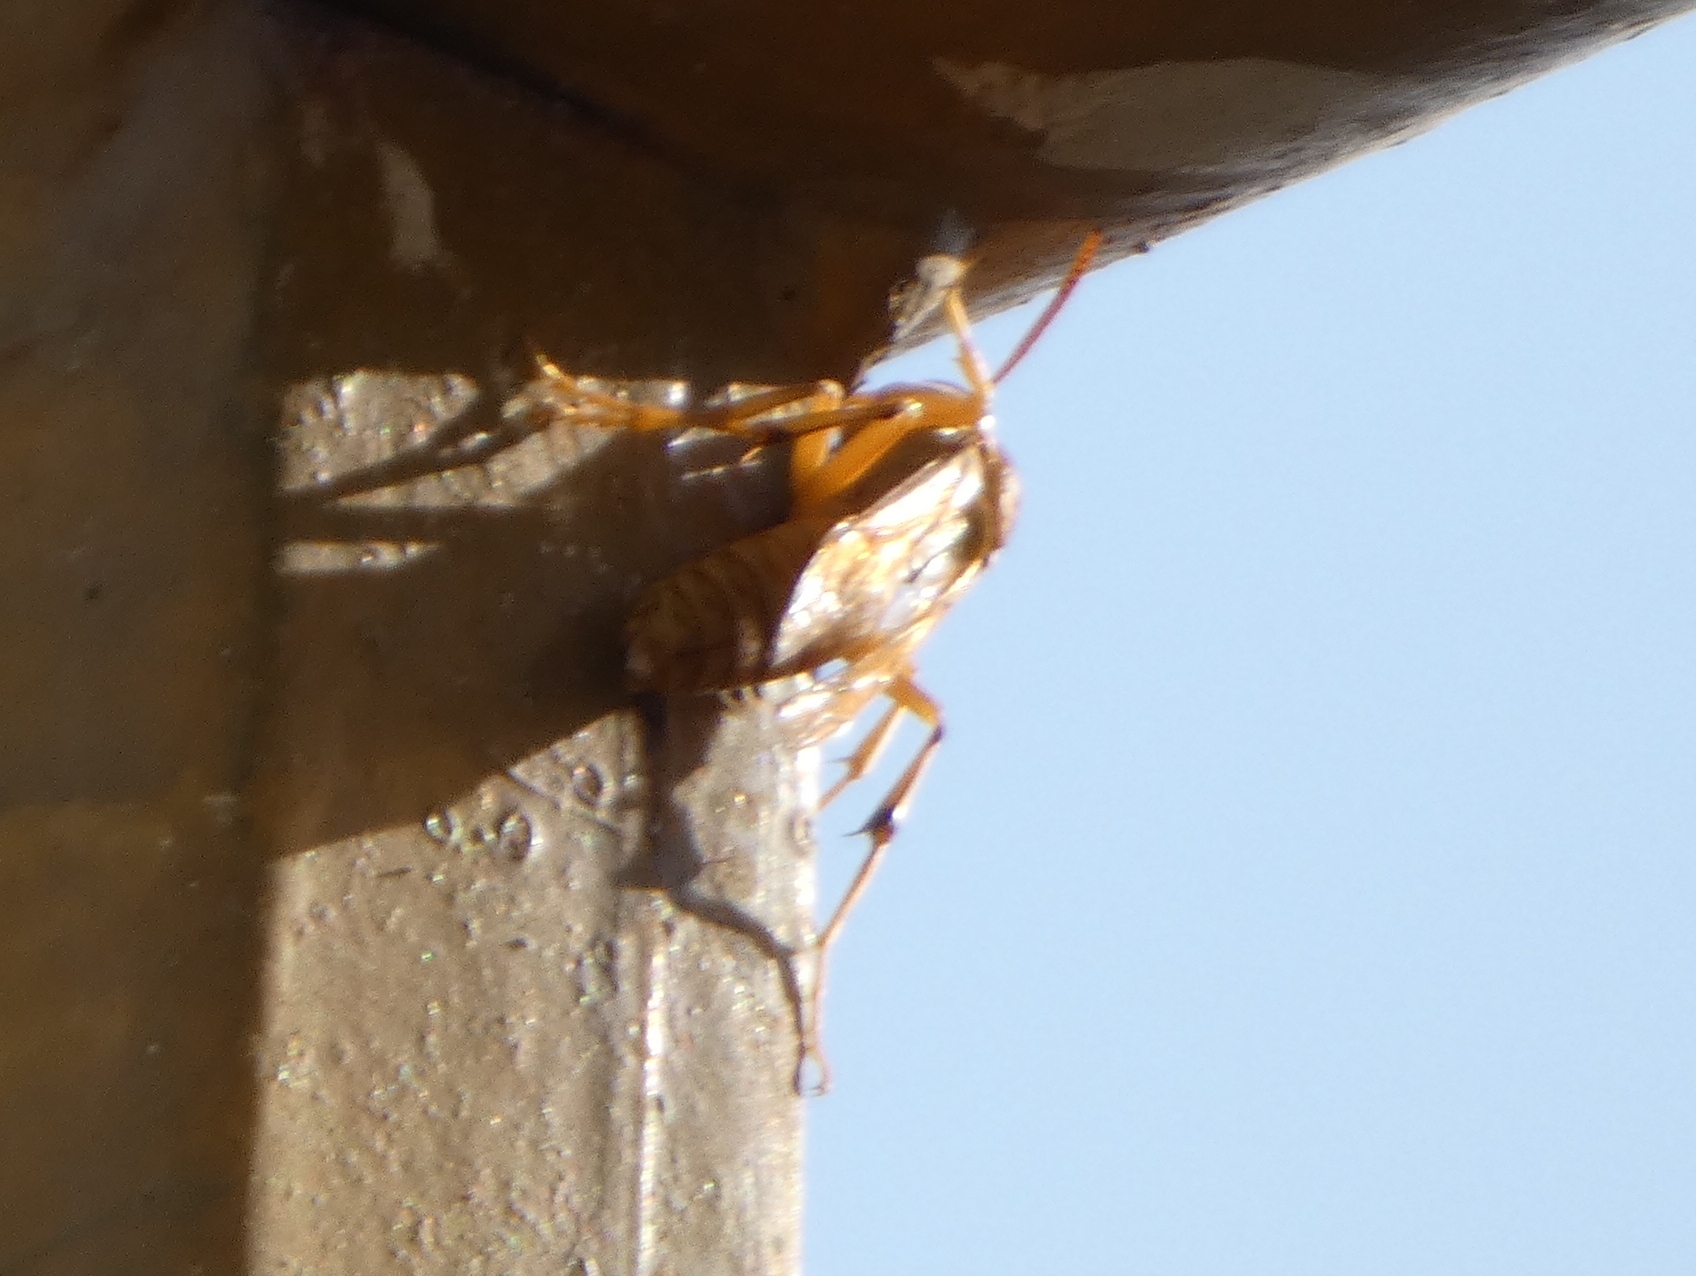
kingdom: Animalia
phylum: Arthropoda
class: Insecta
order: Hymenoptera
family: Eumenidae
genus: Polistes
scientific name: Polistes wattii
